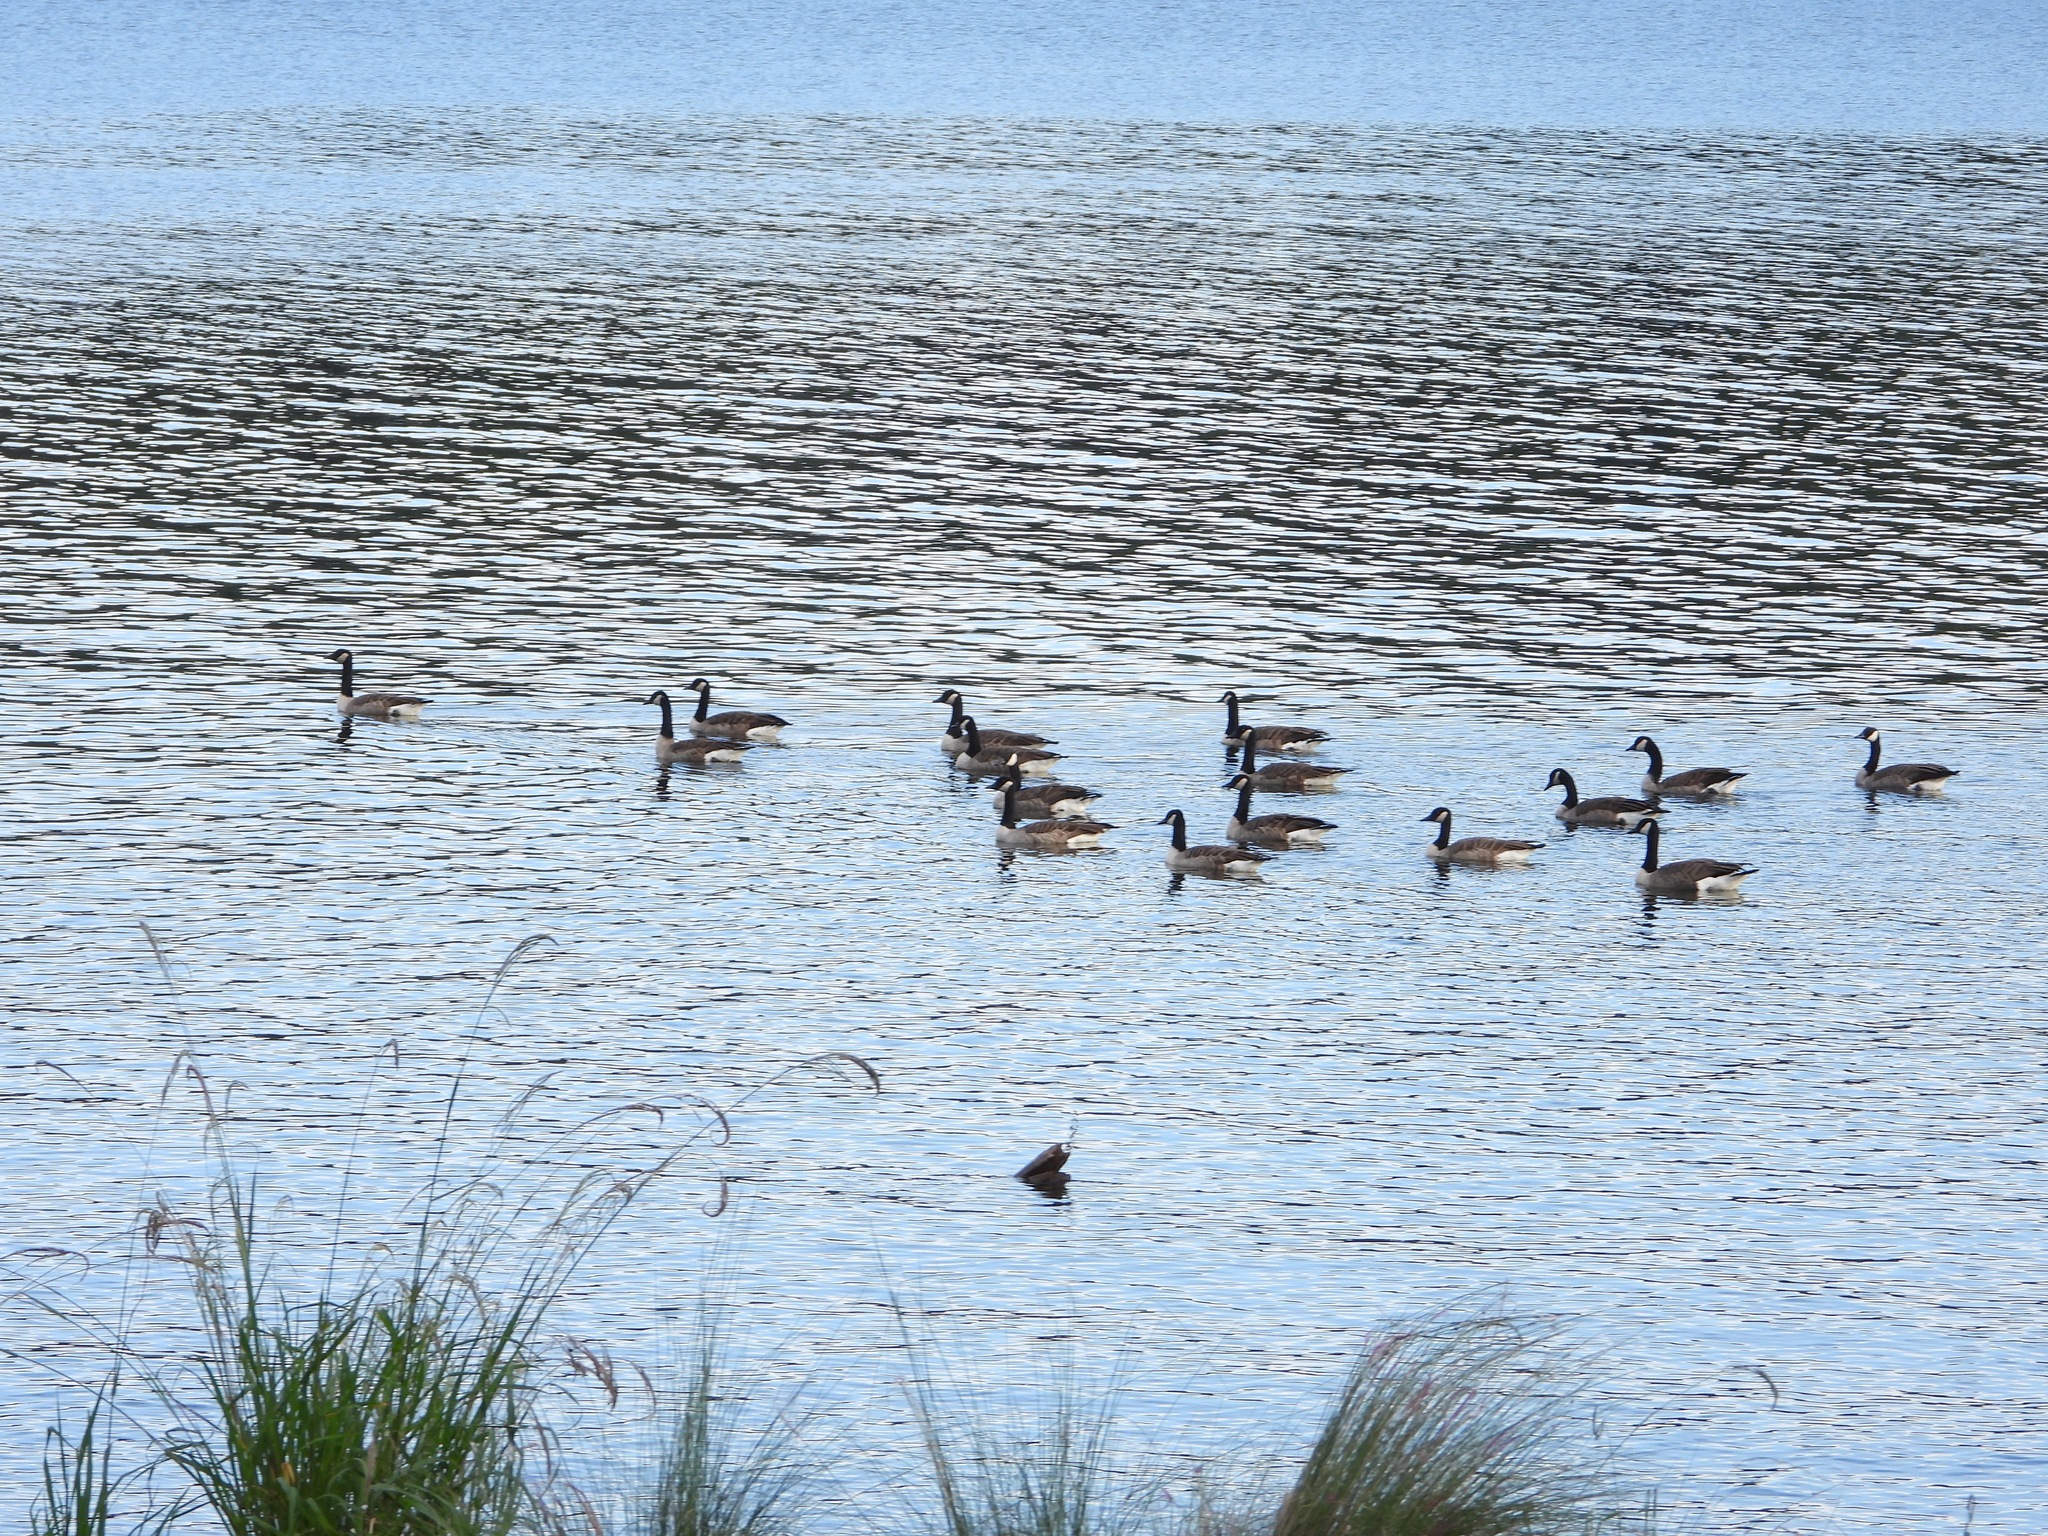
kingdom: Animalia
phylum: Chordata
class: Aves
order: Anseriformes
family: Anatidae
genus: Branta
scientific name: Branta canadensis
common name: Canada goose
